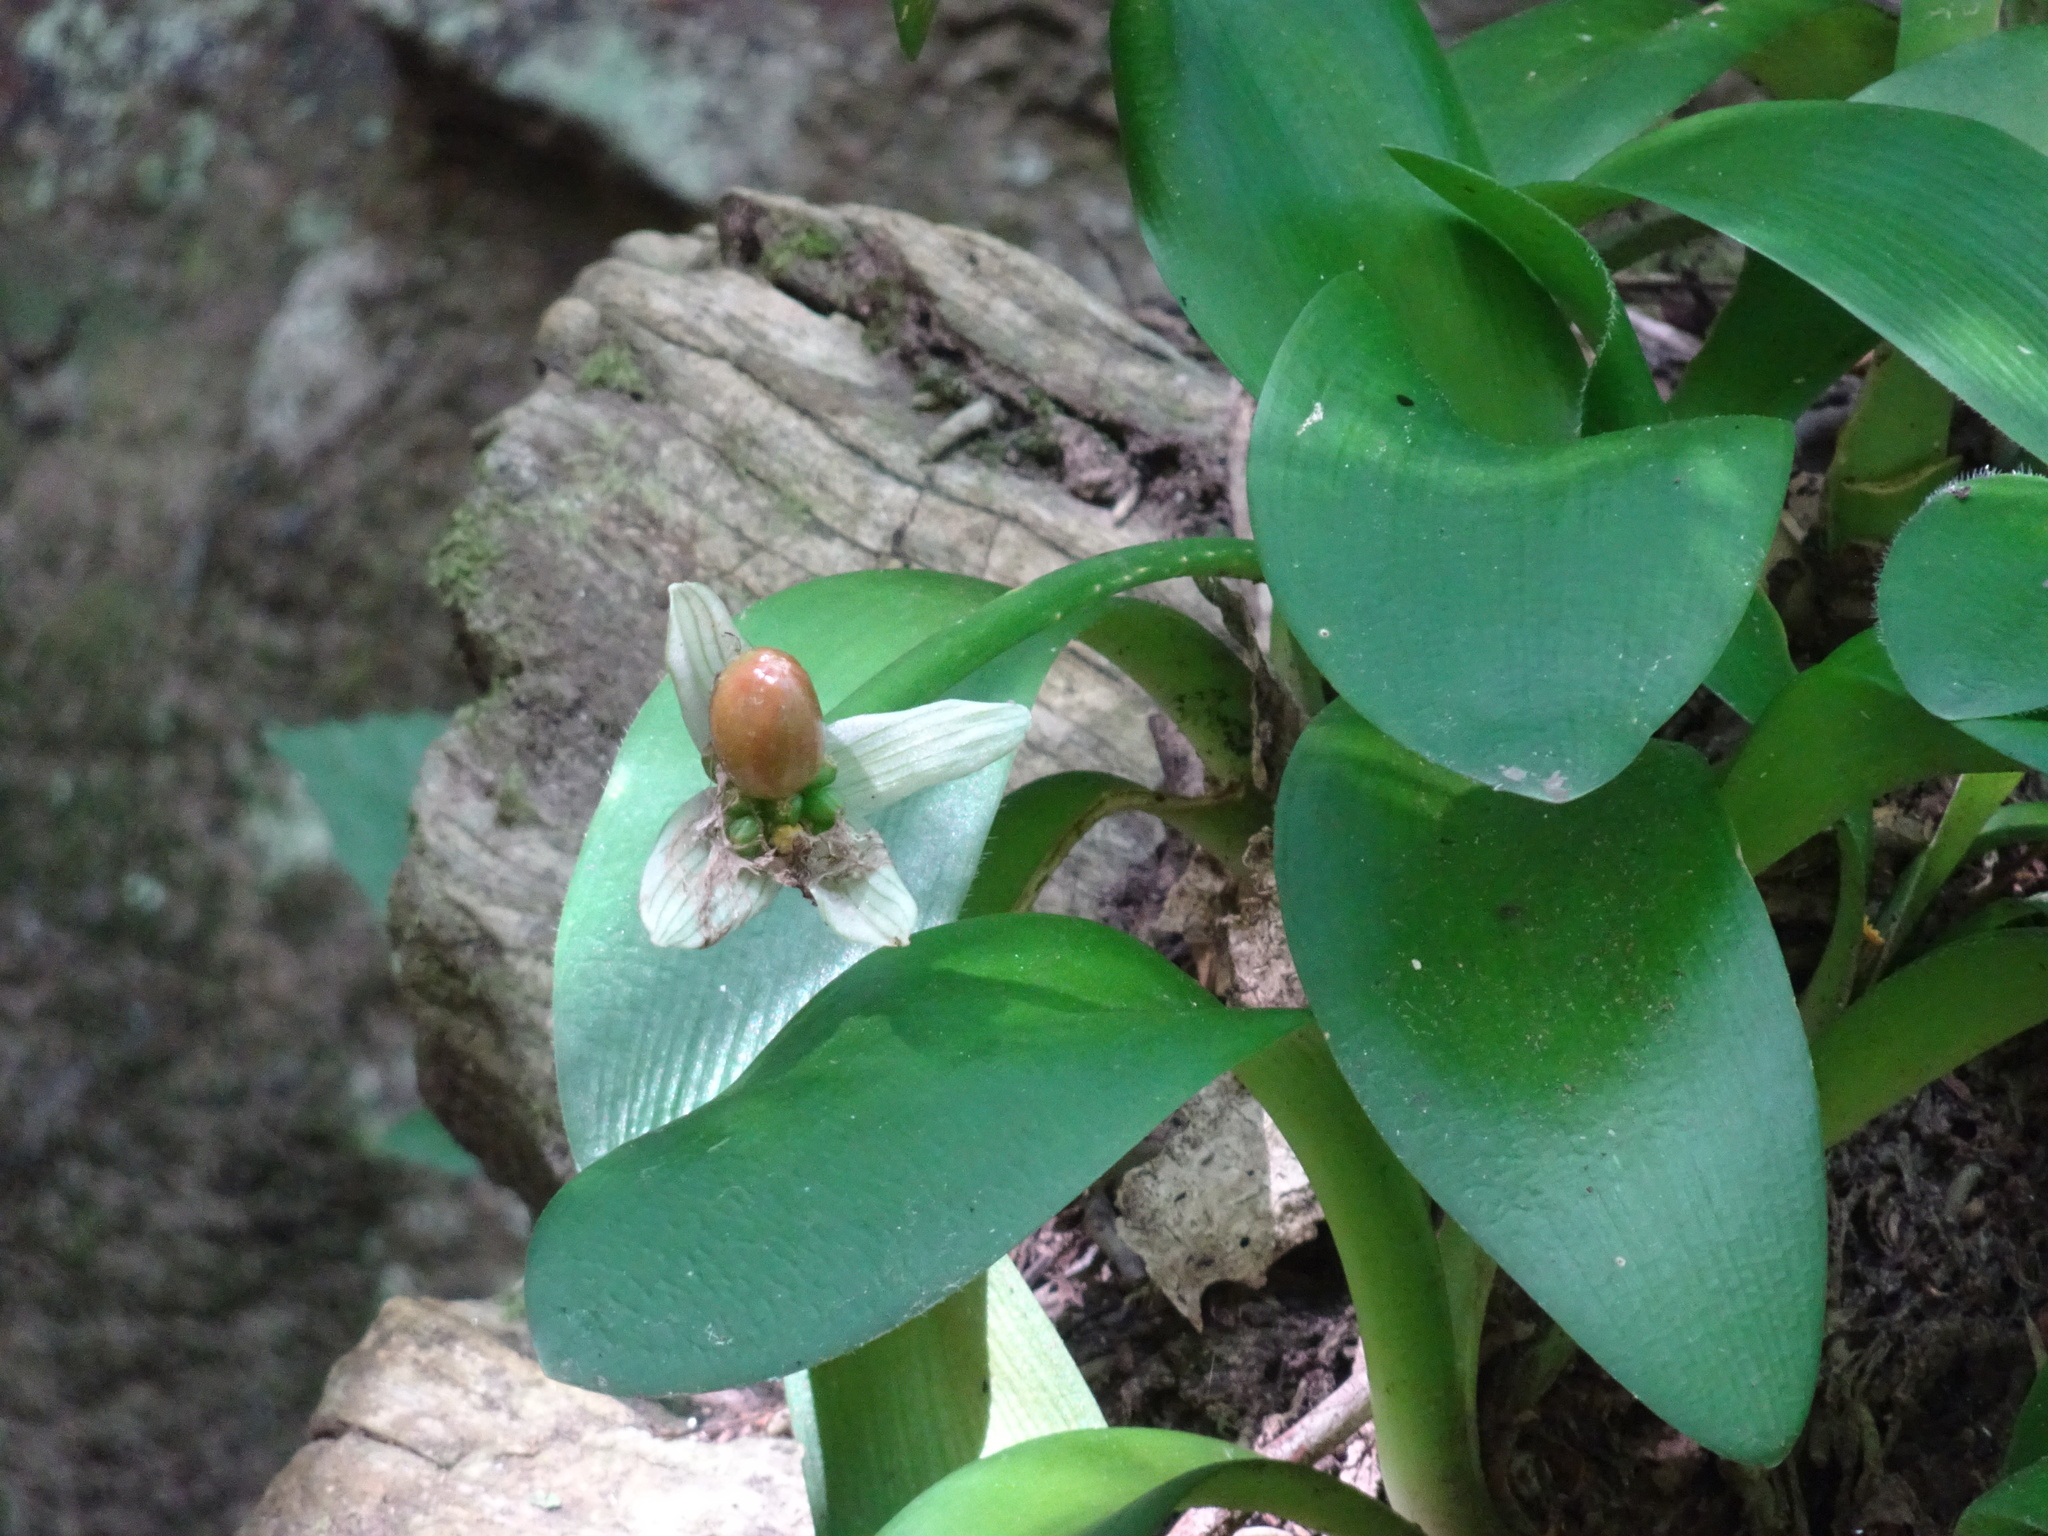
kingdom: Plantae
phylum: Tracheophyta
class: Liliopsida
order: Asparagales
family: Amaryllidaceae
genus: Haemanthus
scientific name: Haemanthus albiflos
